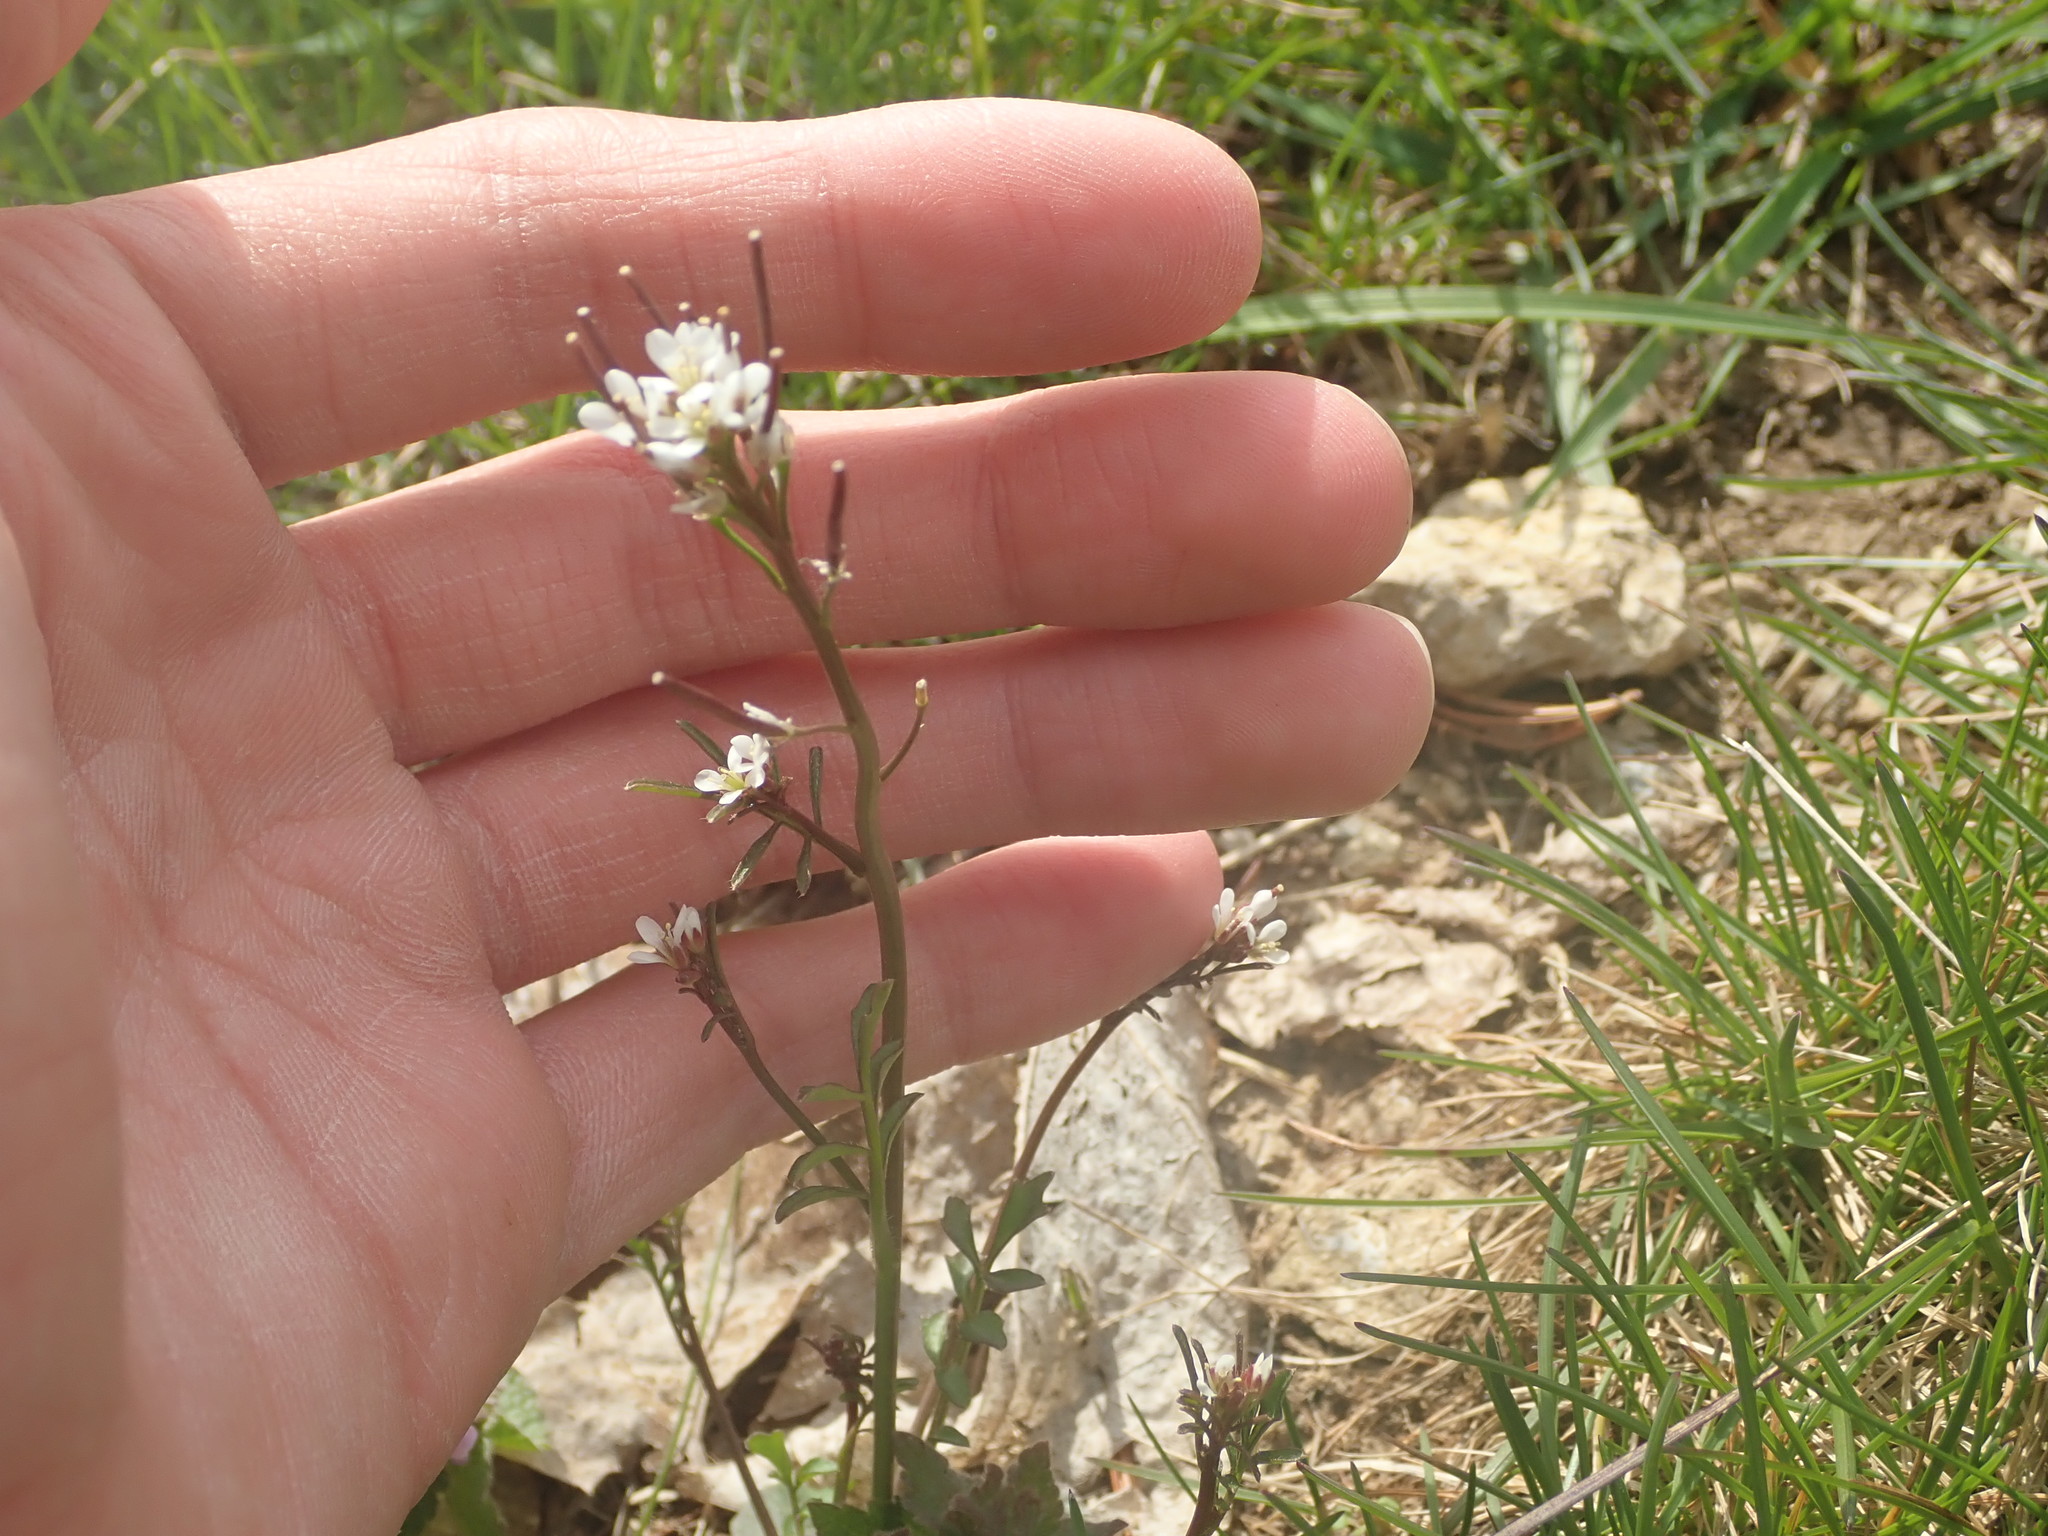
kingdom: Plantae
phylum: Tracheophyta
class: Magnoliopsida
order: Brassicales
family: Brassicaceae
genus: Cardamine
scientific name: Cardamine hirsuta
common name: Hairy bittercress
